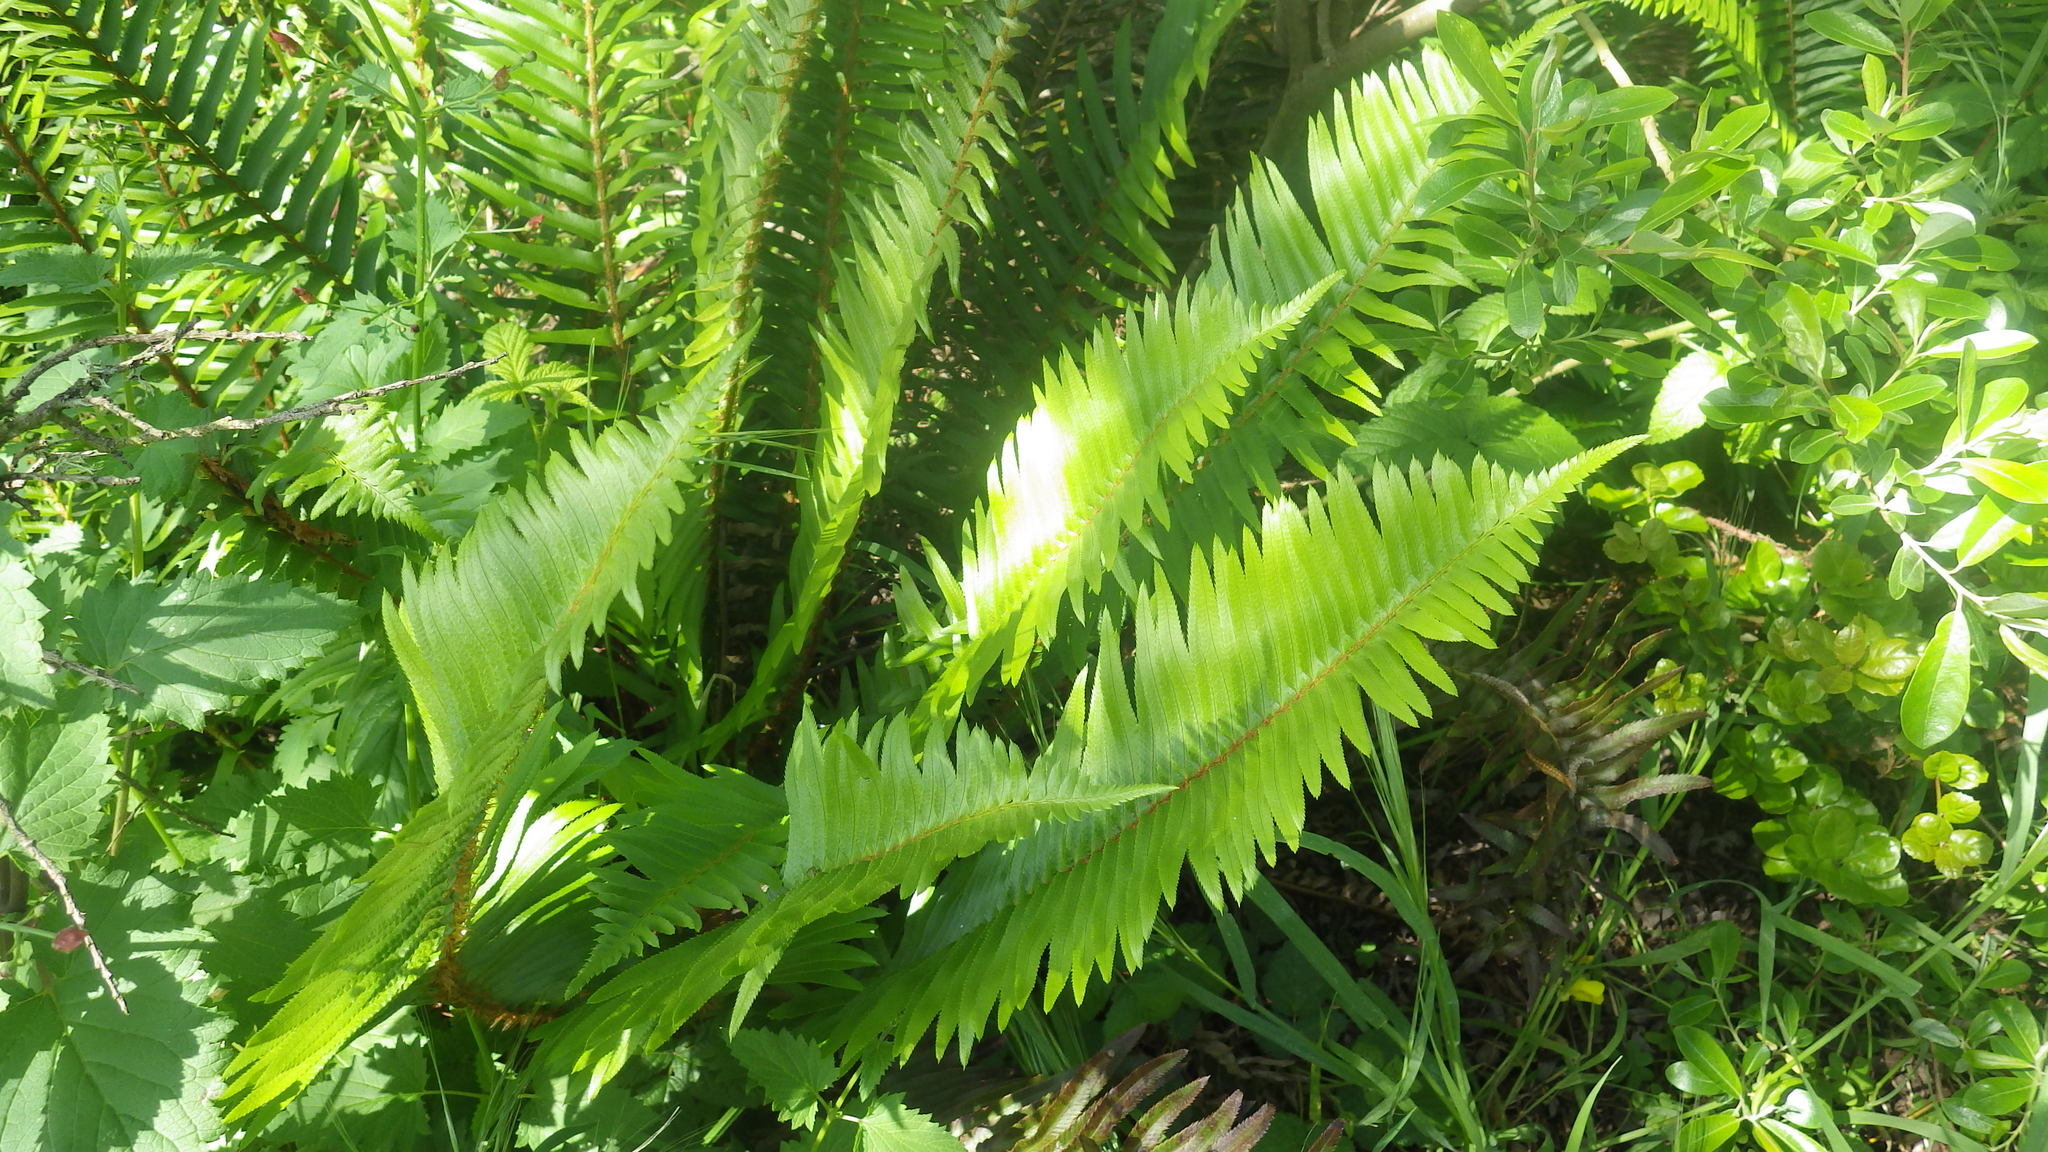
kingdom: Plantae
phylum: Tracheophyta
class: Polypodiopsida
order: Polypodiales
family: Dryopteridaceae
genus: Polystichum
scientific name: Polystichum munitum
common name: Western sword-fern
